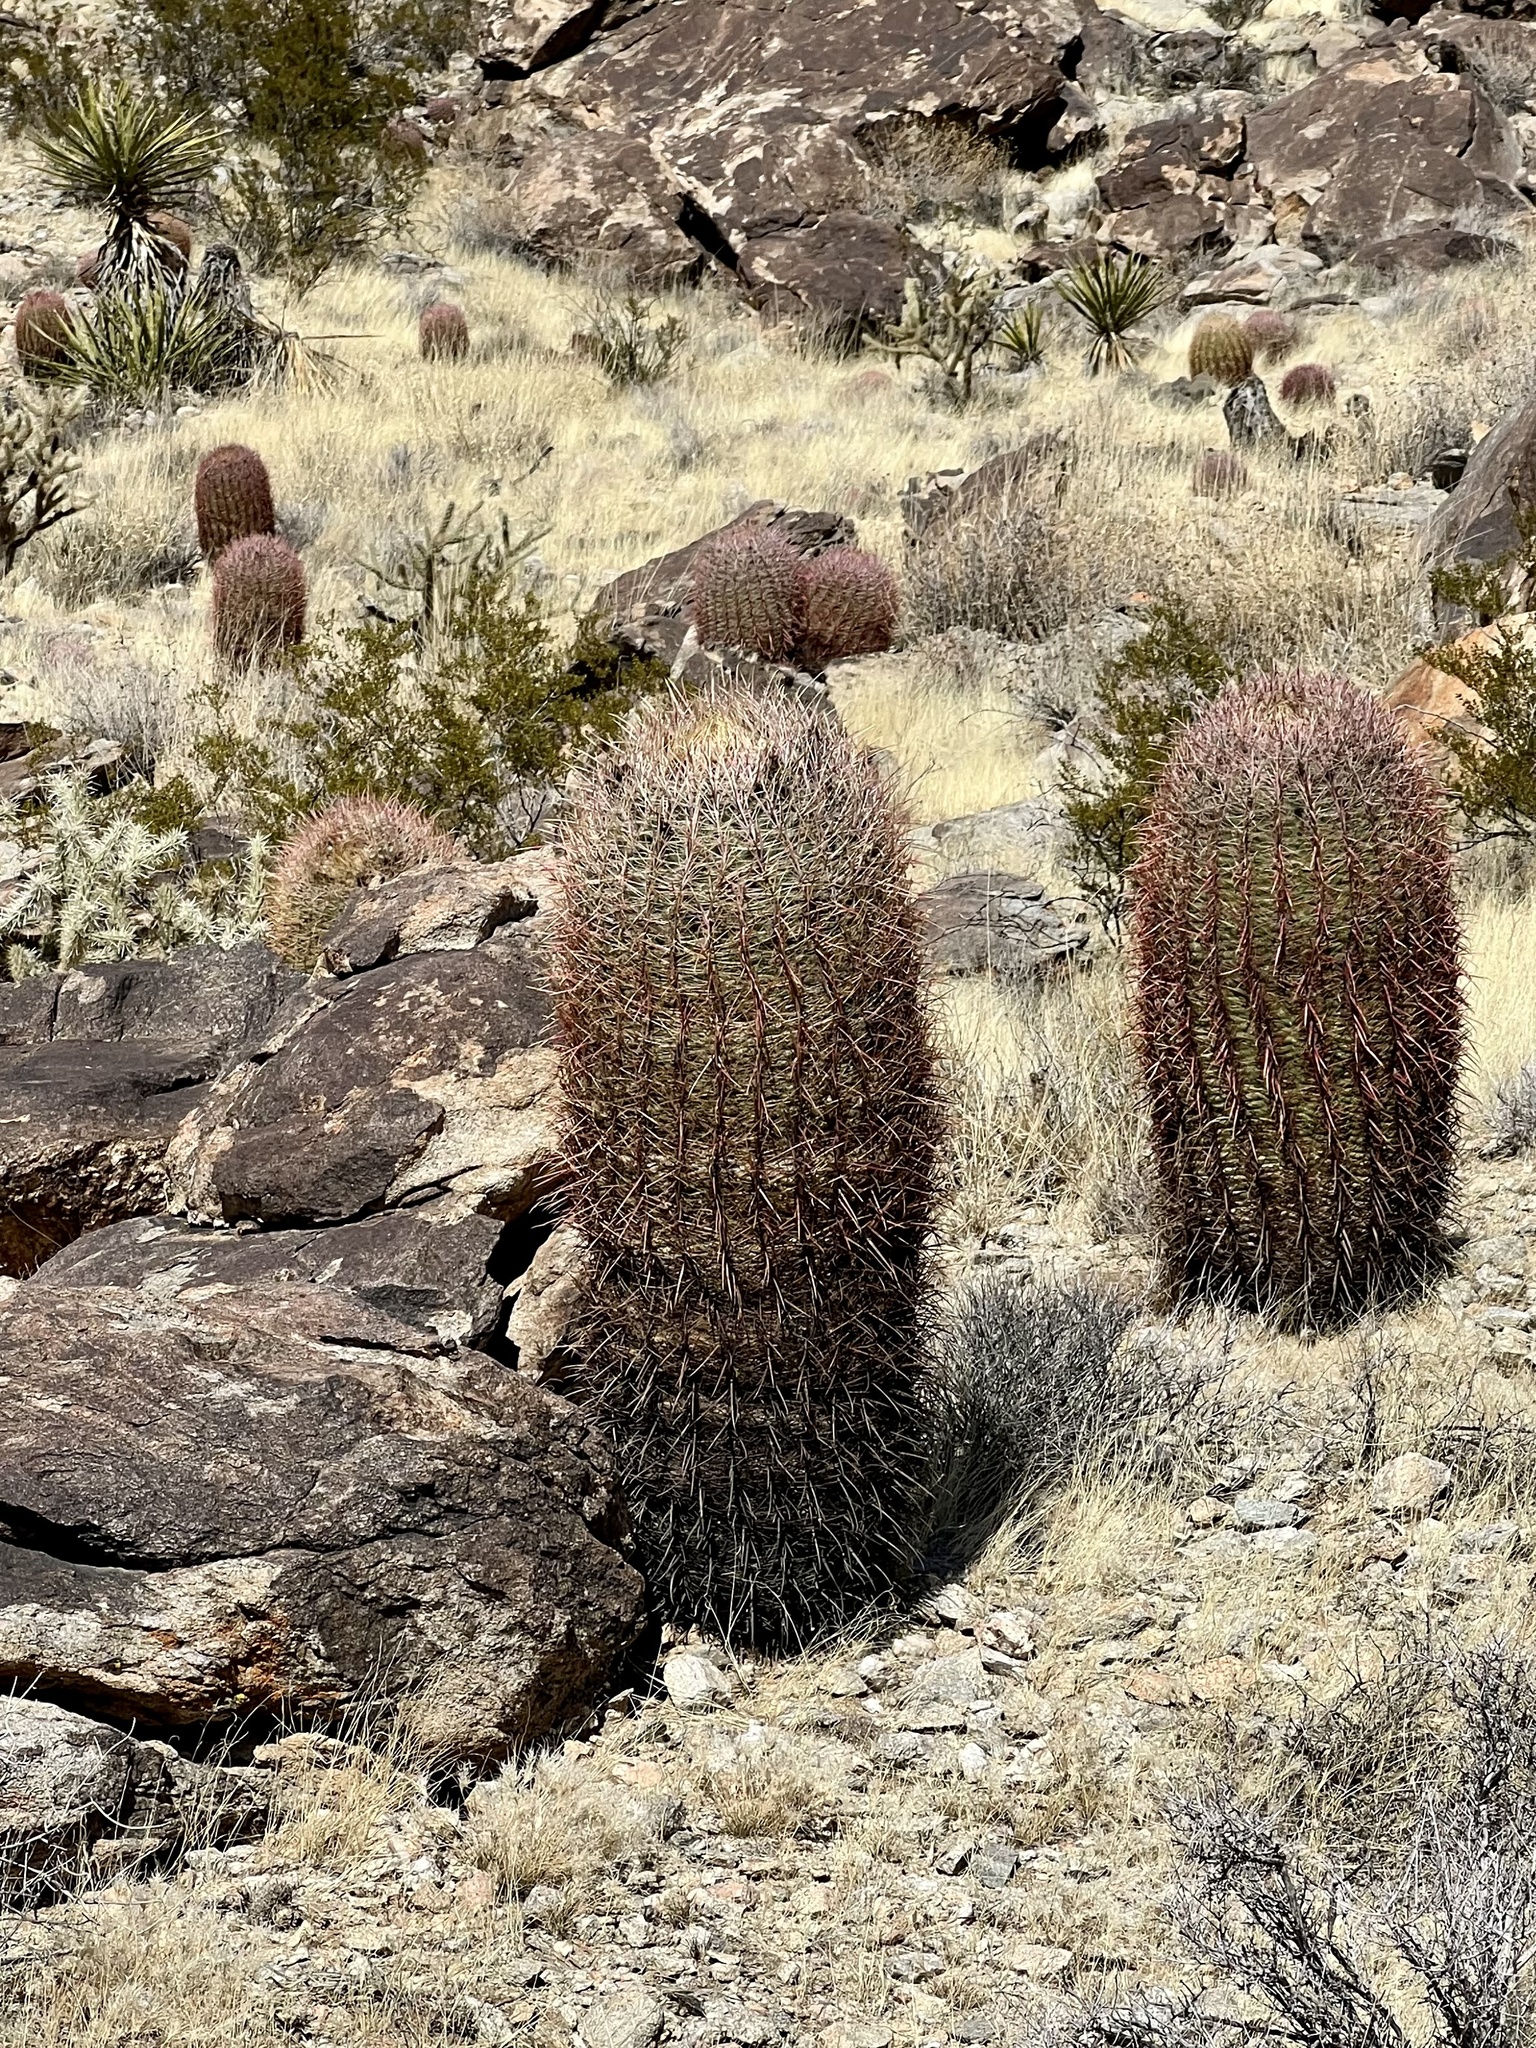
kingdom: Plantae
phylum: Tracheophyta
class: Magnoliopsida
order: Caryophyllales
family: Cactaceae
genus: Ferocactus
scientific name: Ferocactus cylindraceus
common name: California barrel cactus
